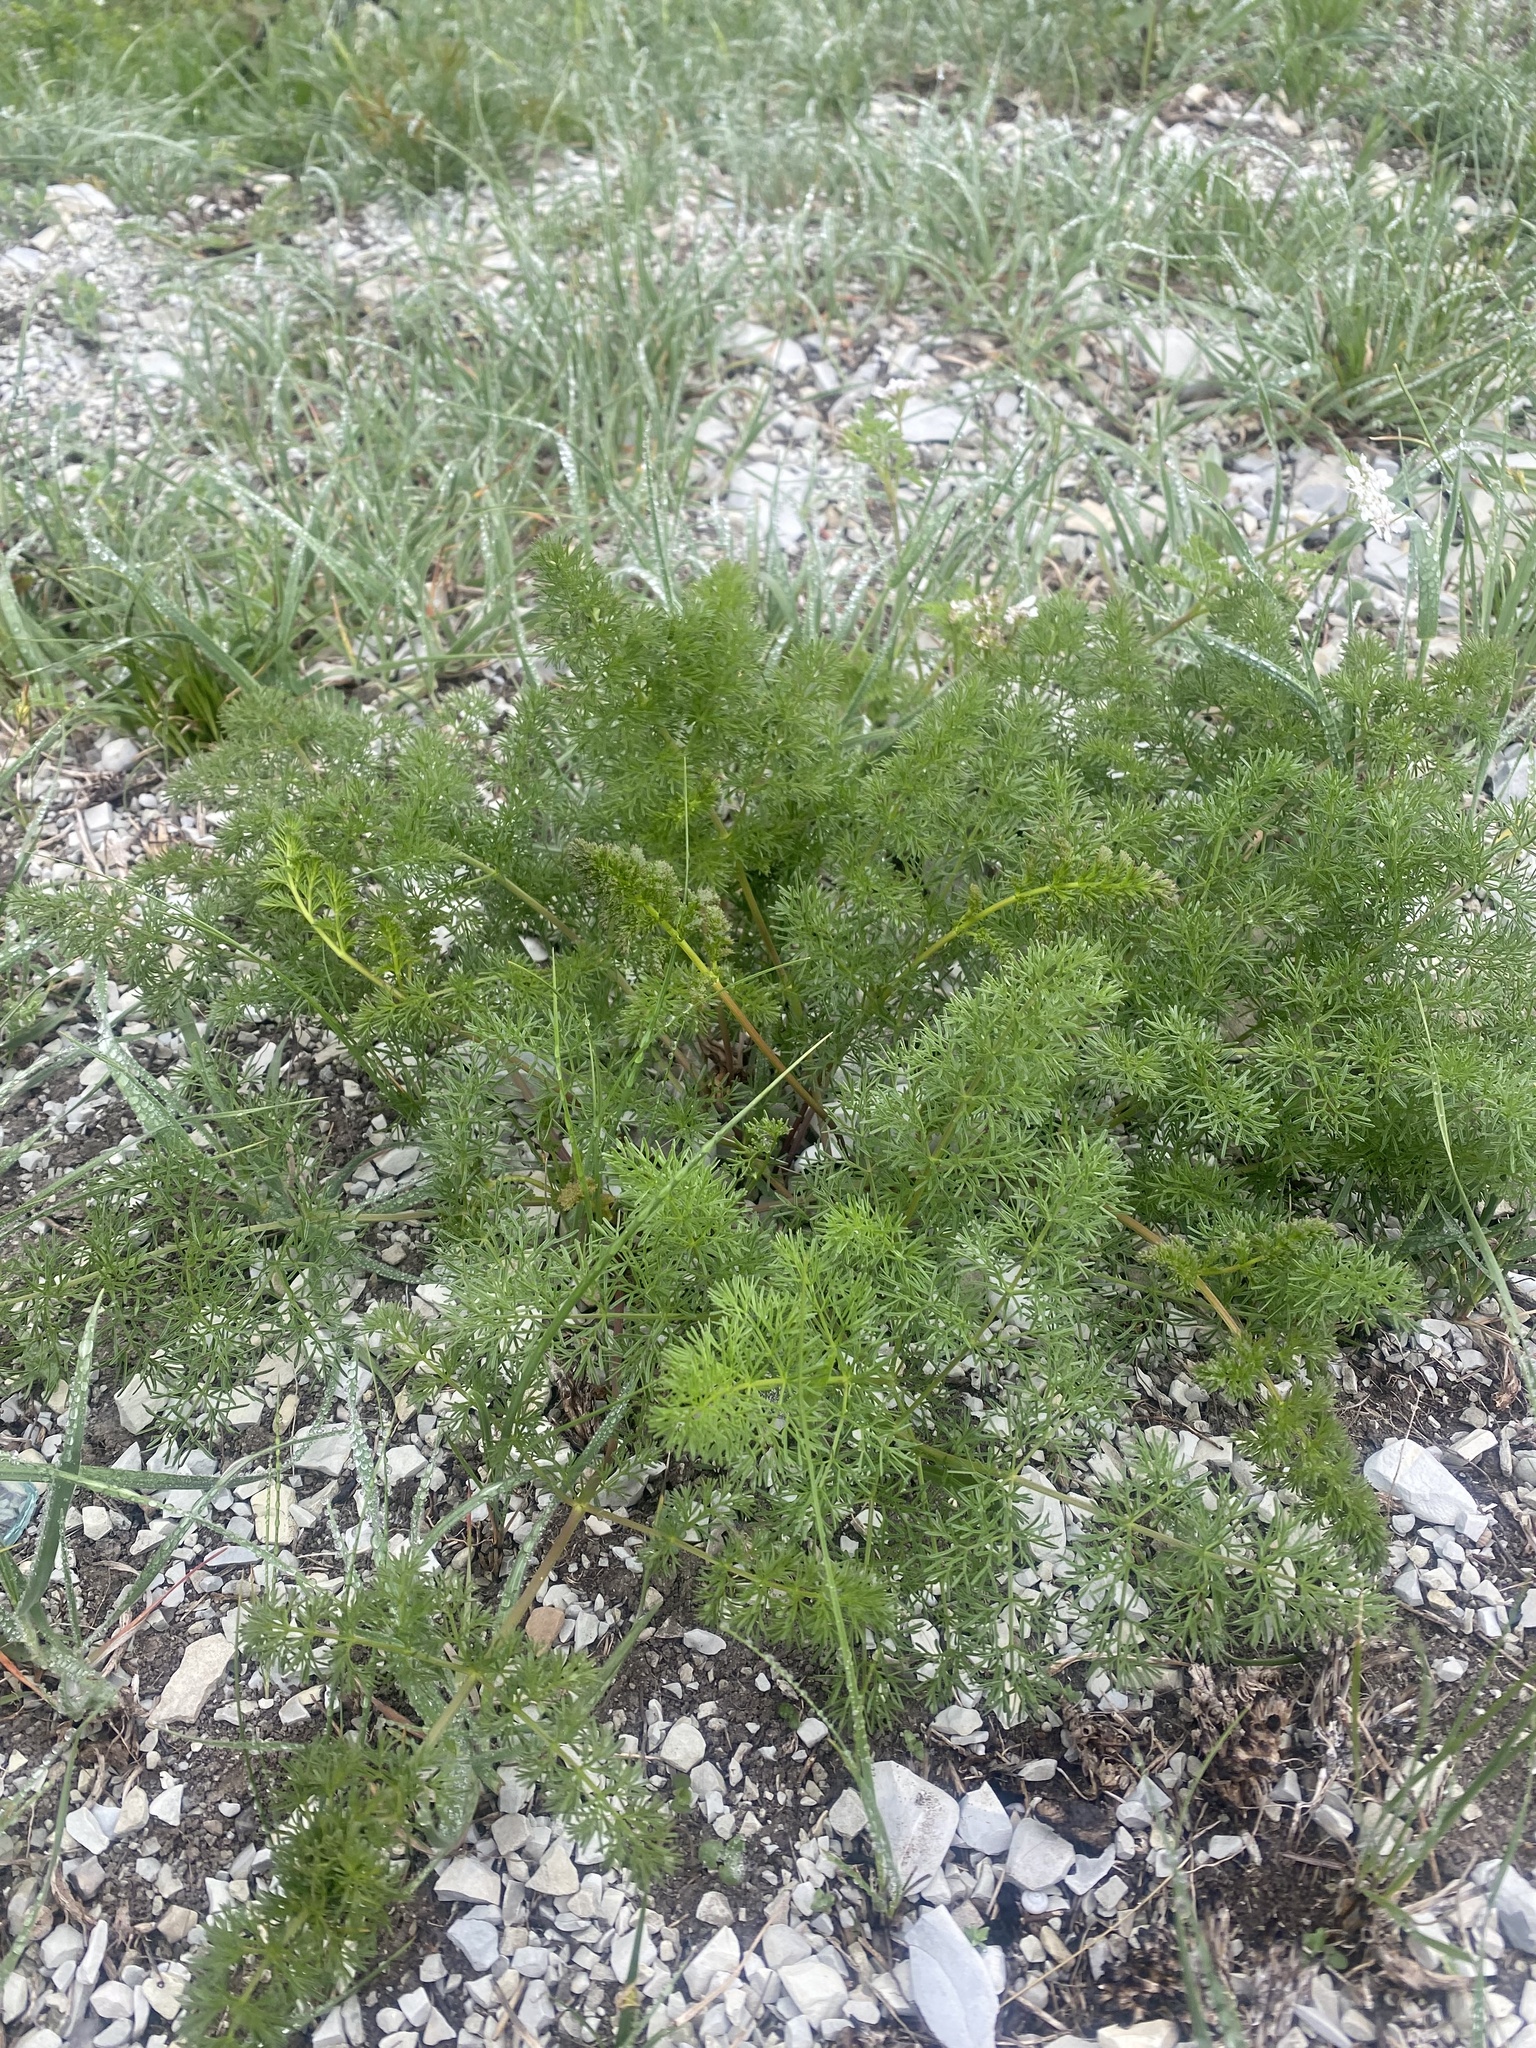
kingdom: Plantae
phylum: Tracheophyta
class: Magnoliopsida
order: Apiales
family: Apiaceae
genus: Ferulago
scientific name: Ferulago galbanifera
